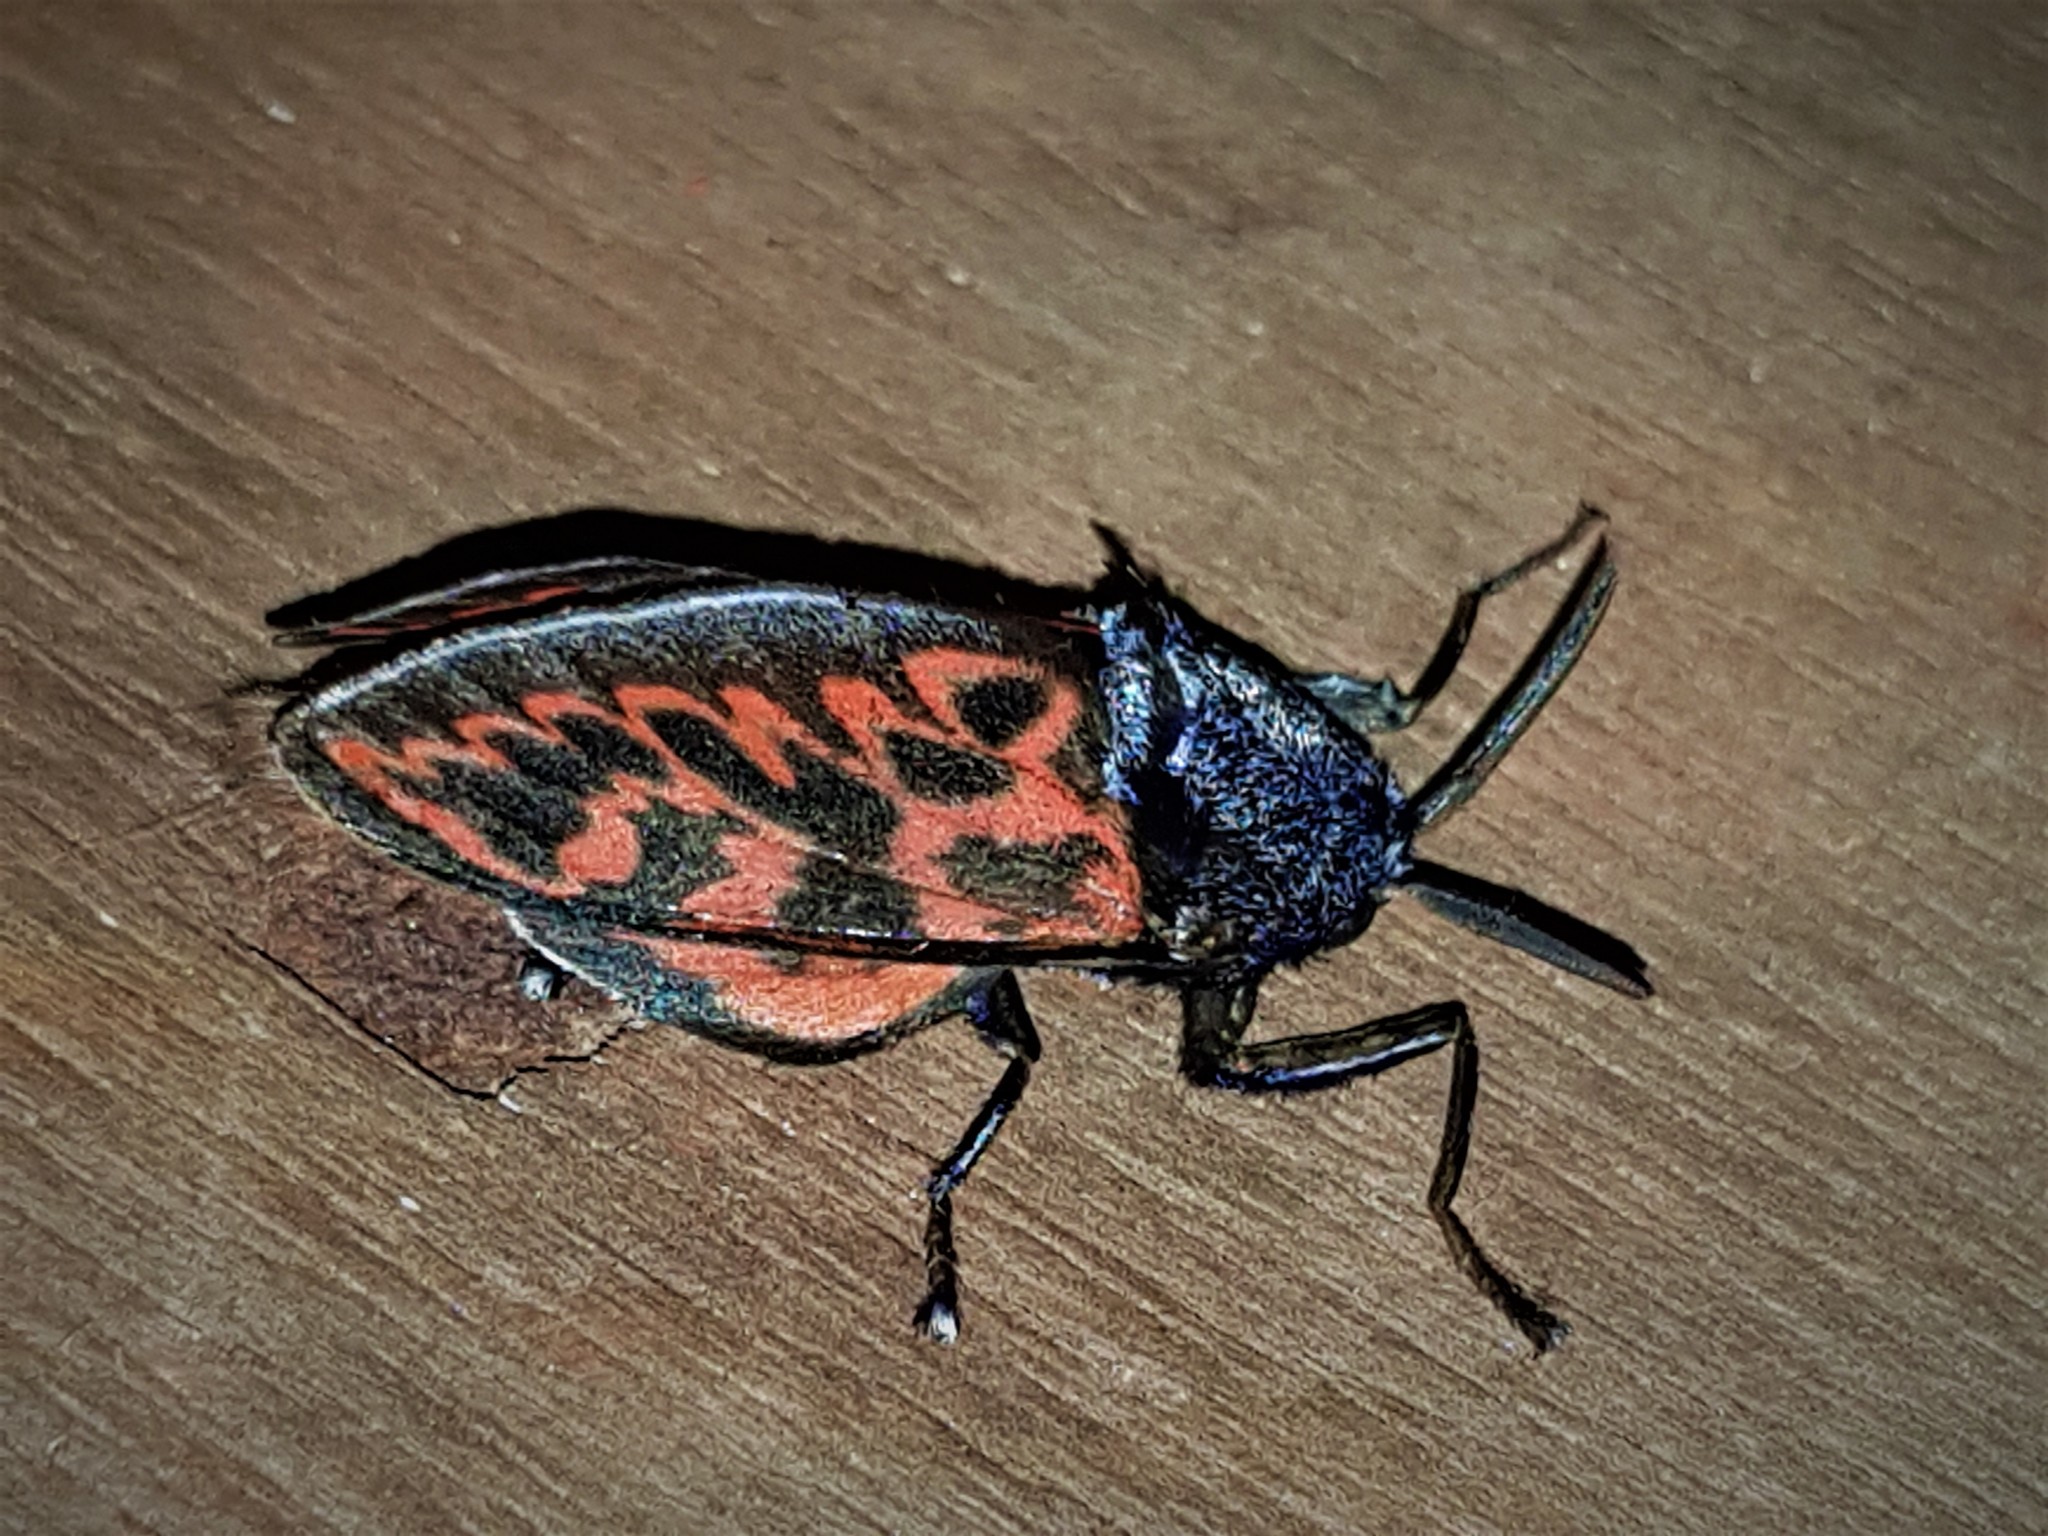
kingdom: Animalia
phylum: Arthropoda
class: Insecta
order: Lepidoptera
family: Megalopygidae
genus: Langucys
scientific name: Langucys bicolor
